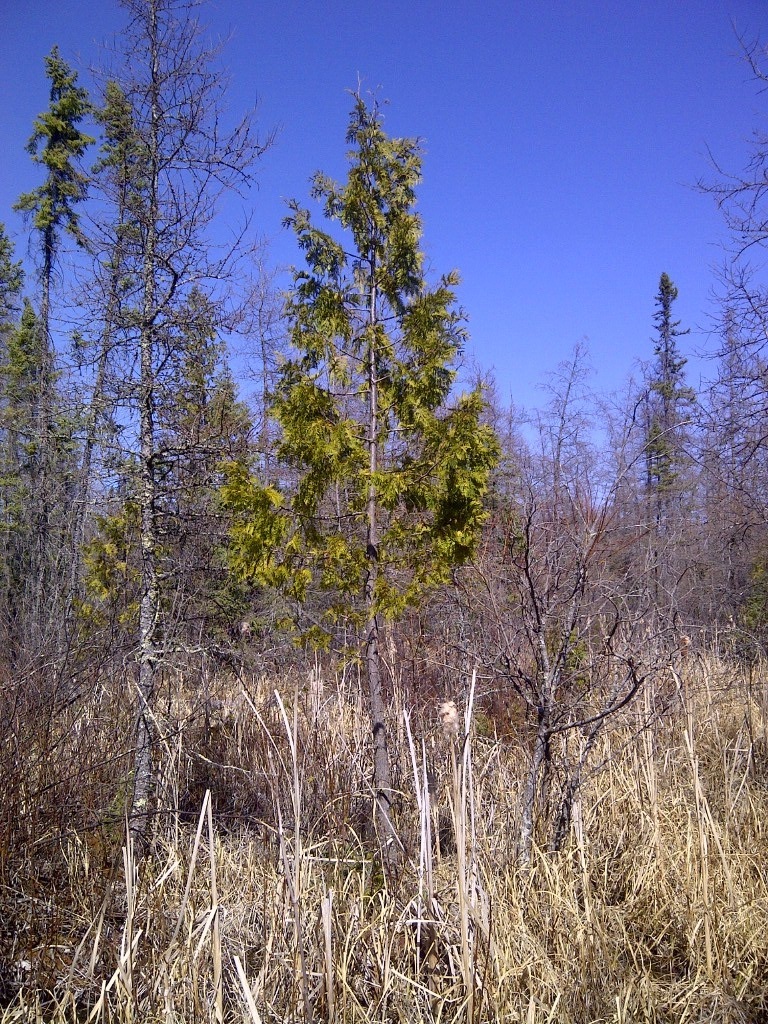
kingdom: Plantae
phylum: Tracheophyta
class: Pinopsida
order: Pinales
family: Cupressaceae
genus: Thuja
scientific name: Thuja occidentalis
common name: Northern white-cedar
